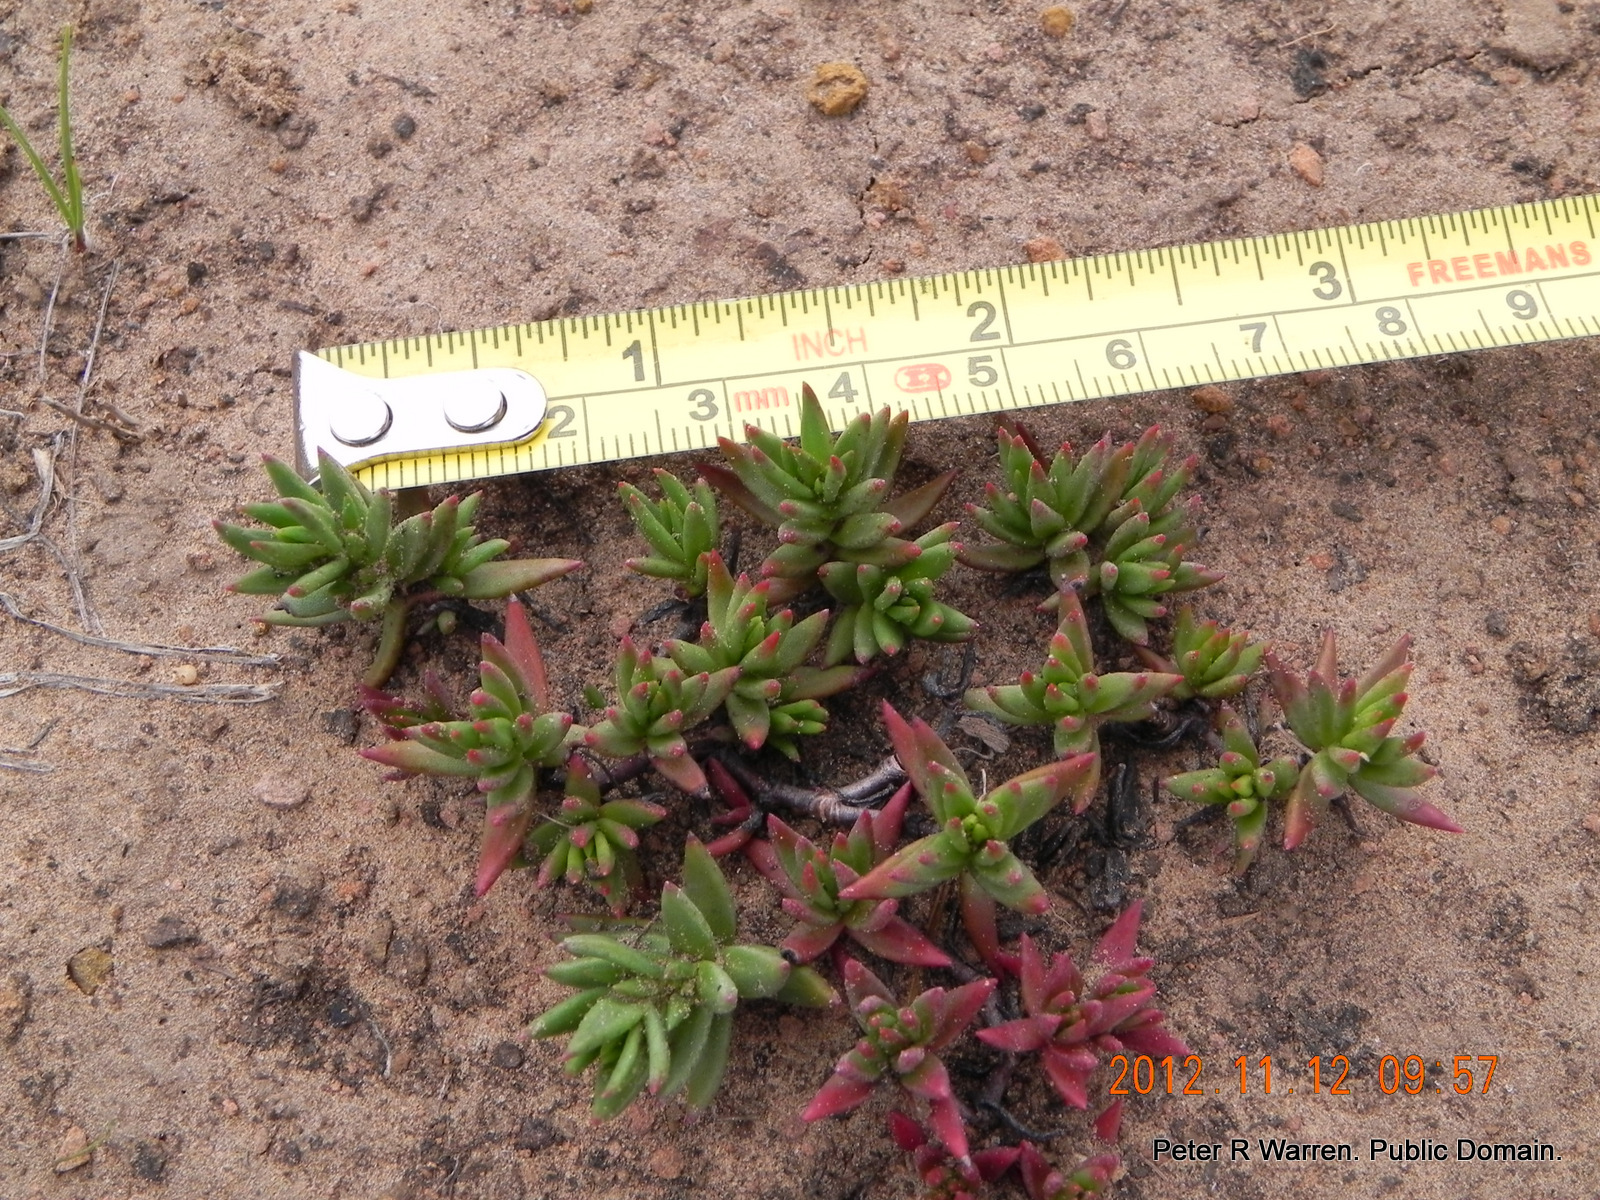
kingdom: Plantae
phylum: Tracheophyta
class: Magnoliopsida
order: Saxifragales
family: Crassulaceae
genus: Crassula
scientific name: Crassula dependens
